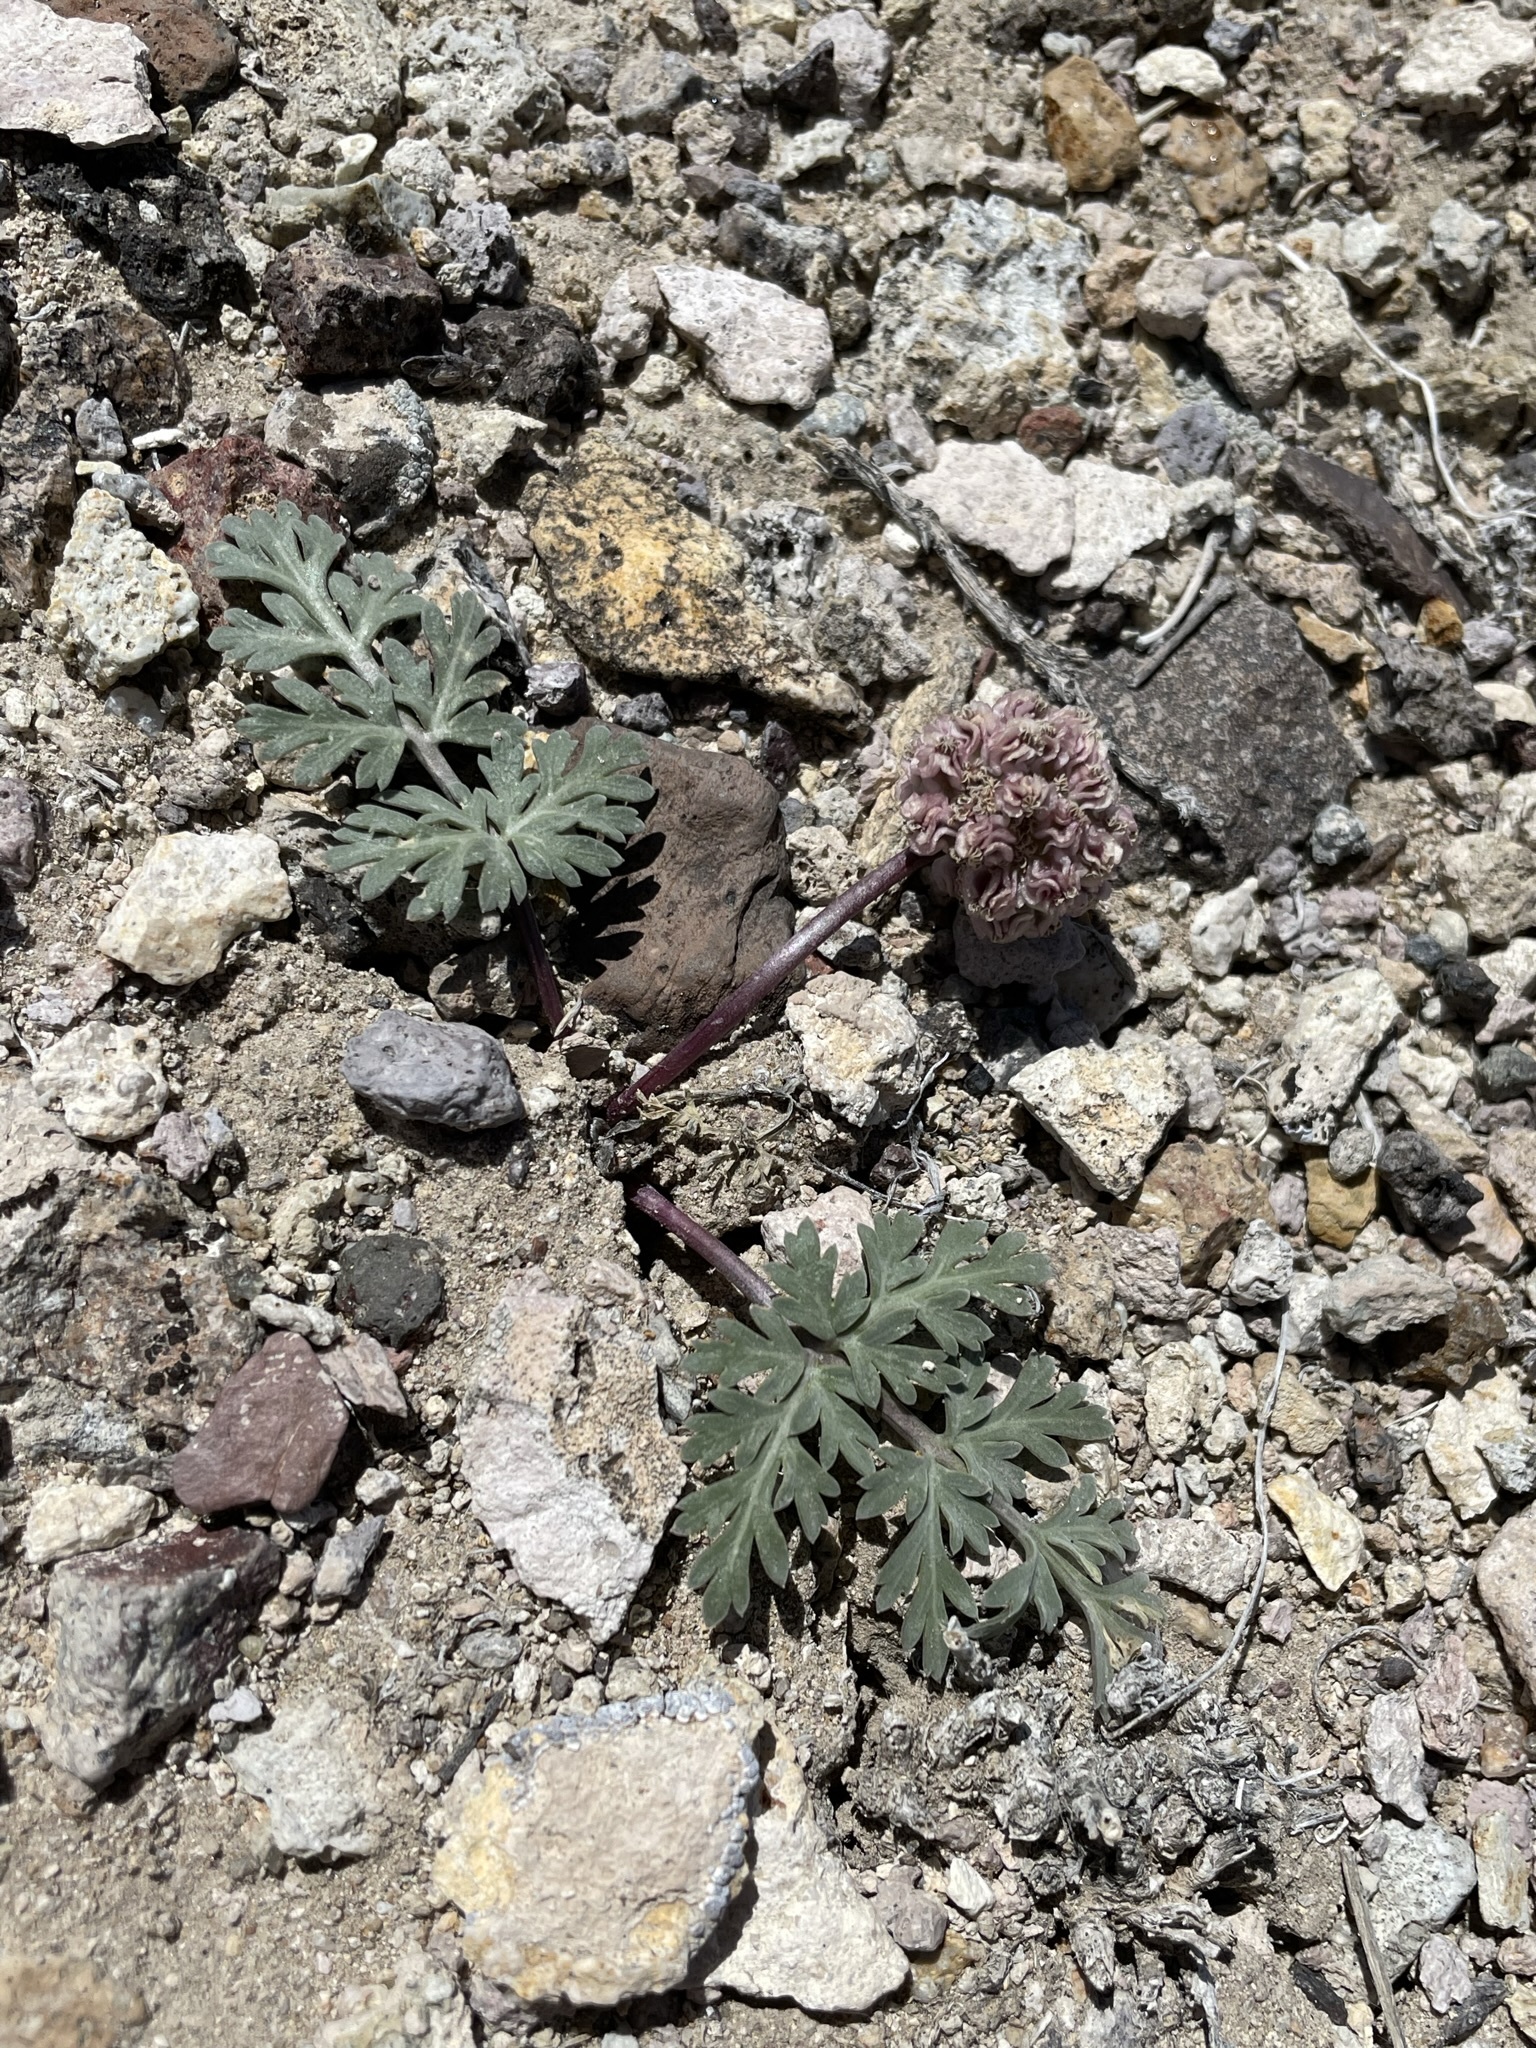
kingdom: Plantae
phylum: Tracheophyta
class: Magnoliopsida
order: Apiales
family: Apiaceae
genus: Cymopterus
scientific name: Cymopterus globosus
